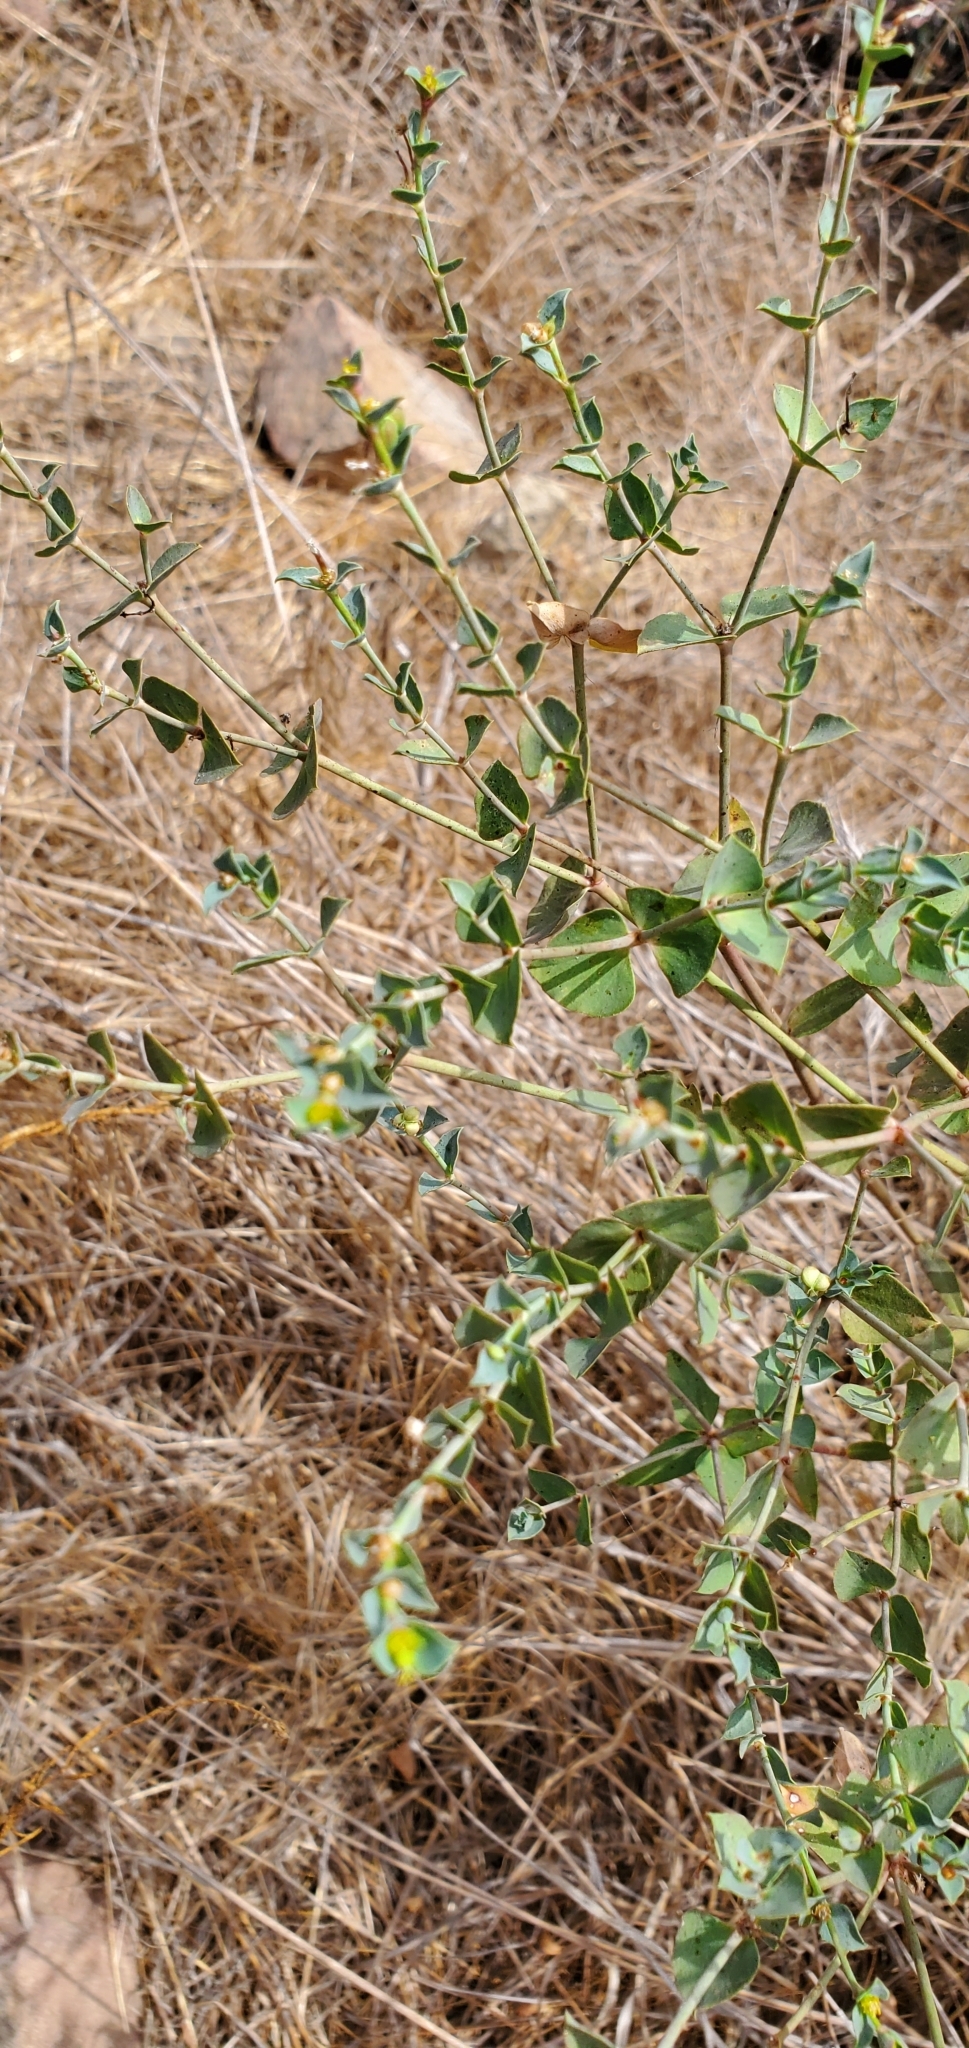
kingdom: Plantae
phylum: Tracheophyta
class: Magnoliopsida
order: Malpighiales
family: Euphorbiaceae
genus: Euphorbia
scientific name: Euphorbia terracina
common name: Geraldton carnation weed
